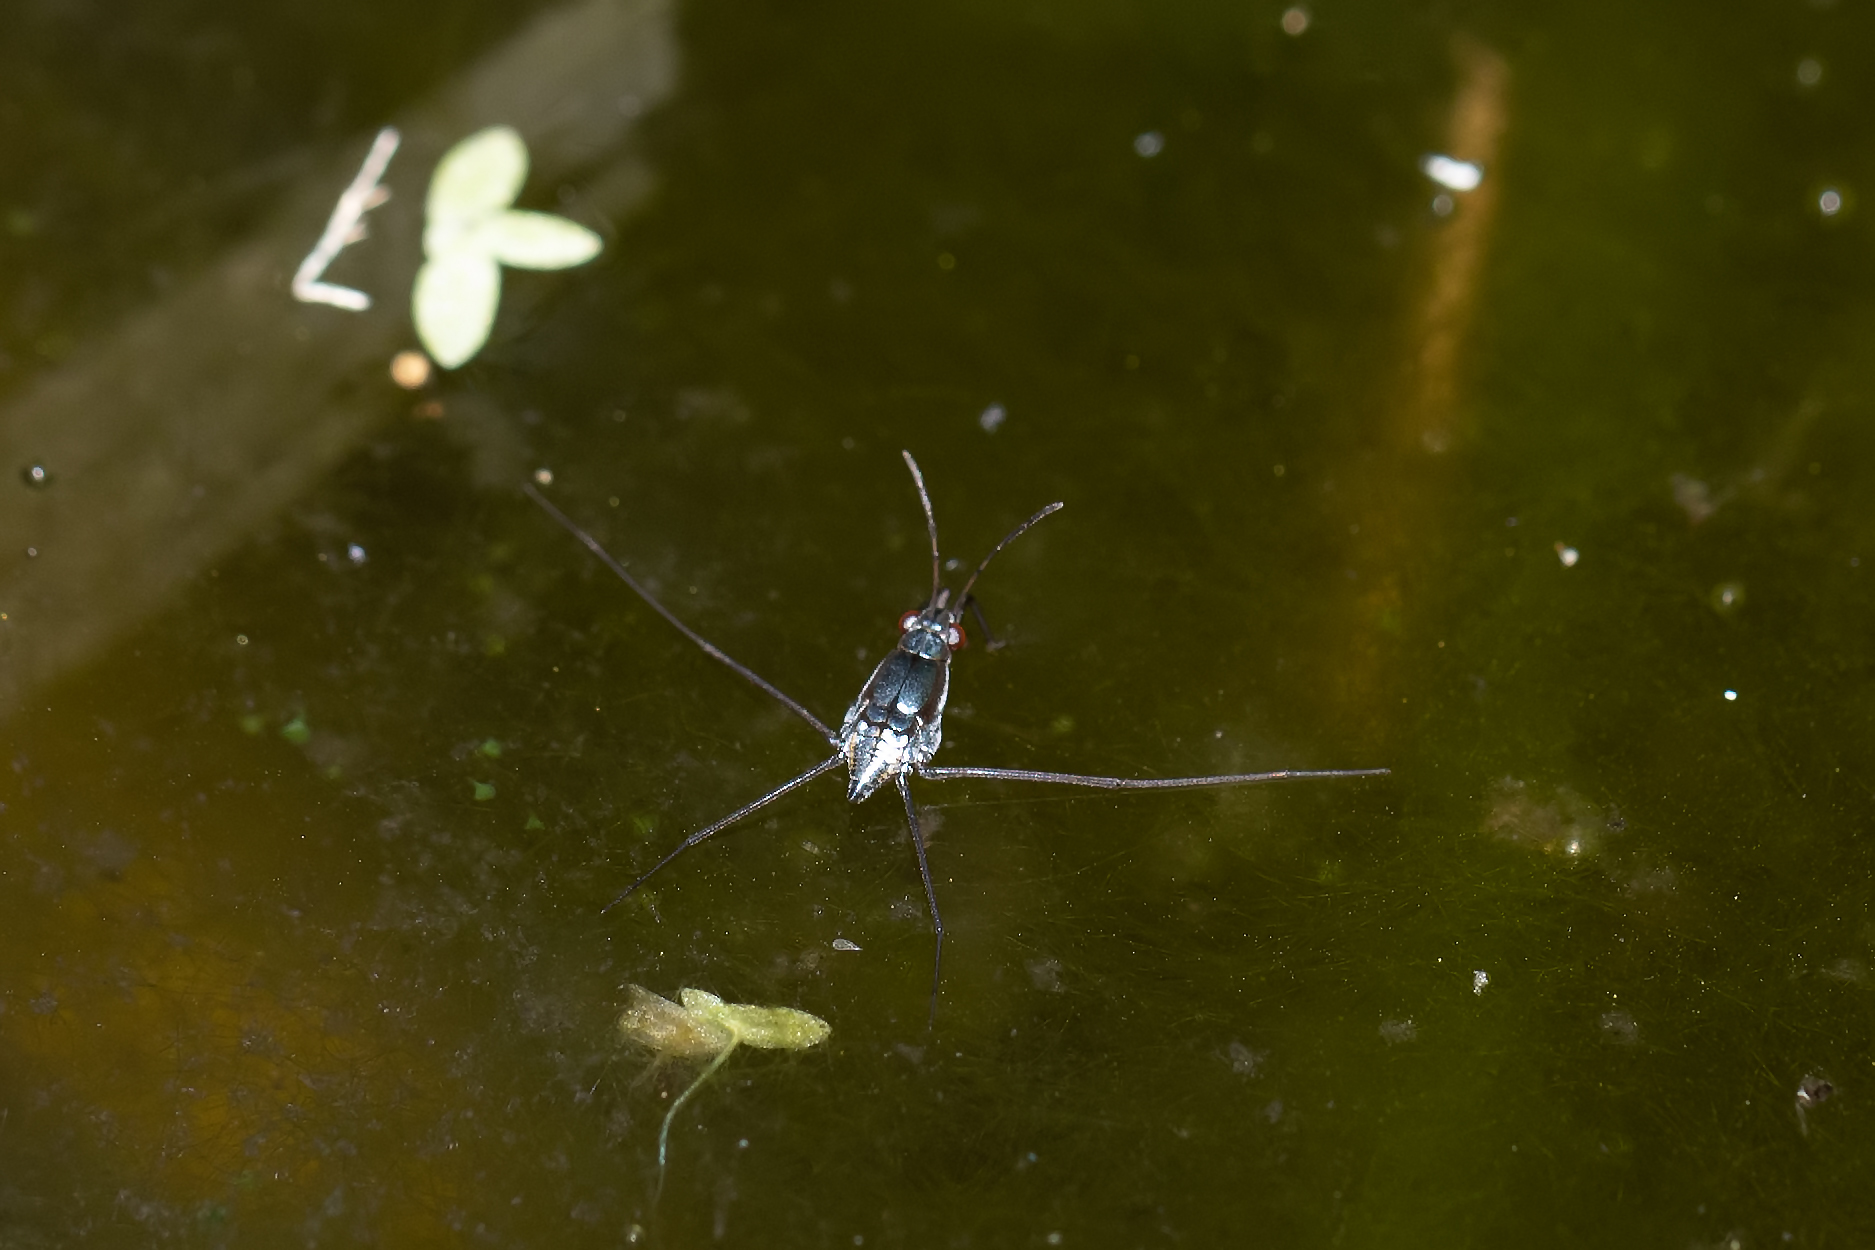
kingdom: Animalia
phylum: Arthropoda
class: Insecta
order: Hemiptera
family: Gerridae
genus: Neogerris
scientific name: Neogerris hesione
